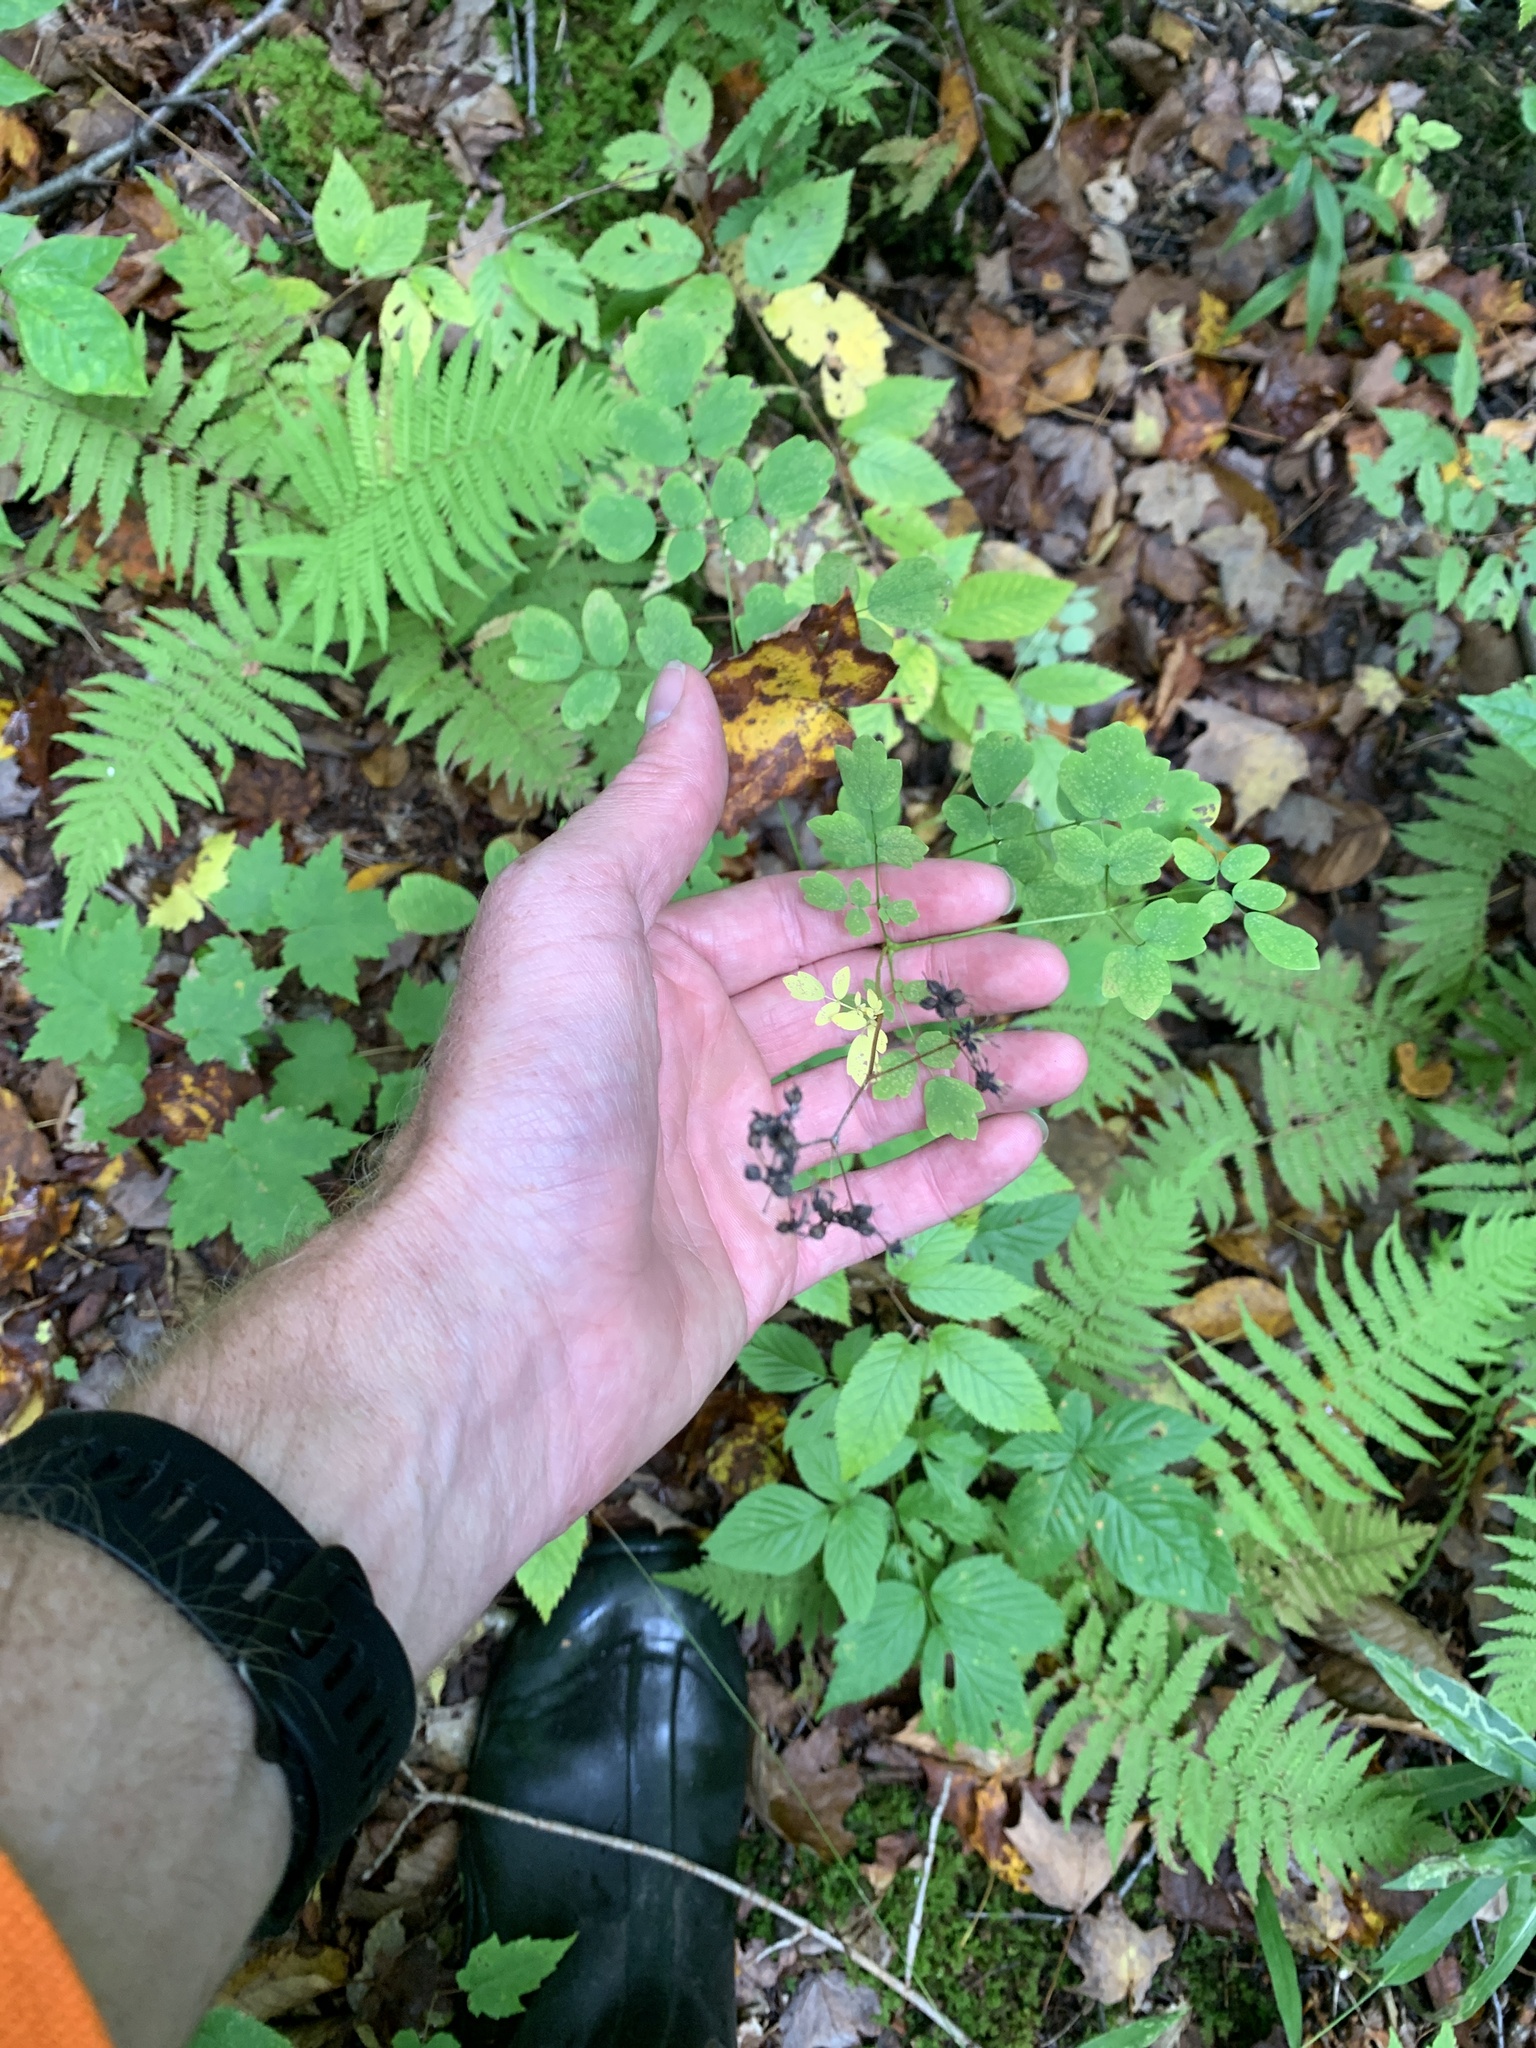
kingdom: Plantae
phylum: Tracheophyta
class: Magnoliopsida
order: Ranunculales
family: Ranunculaceae
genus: Thalictrum
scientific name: Thalictrum pubescens
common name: King-of-the-meadow
